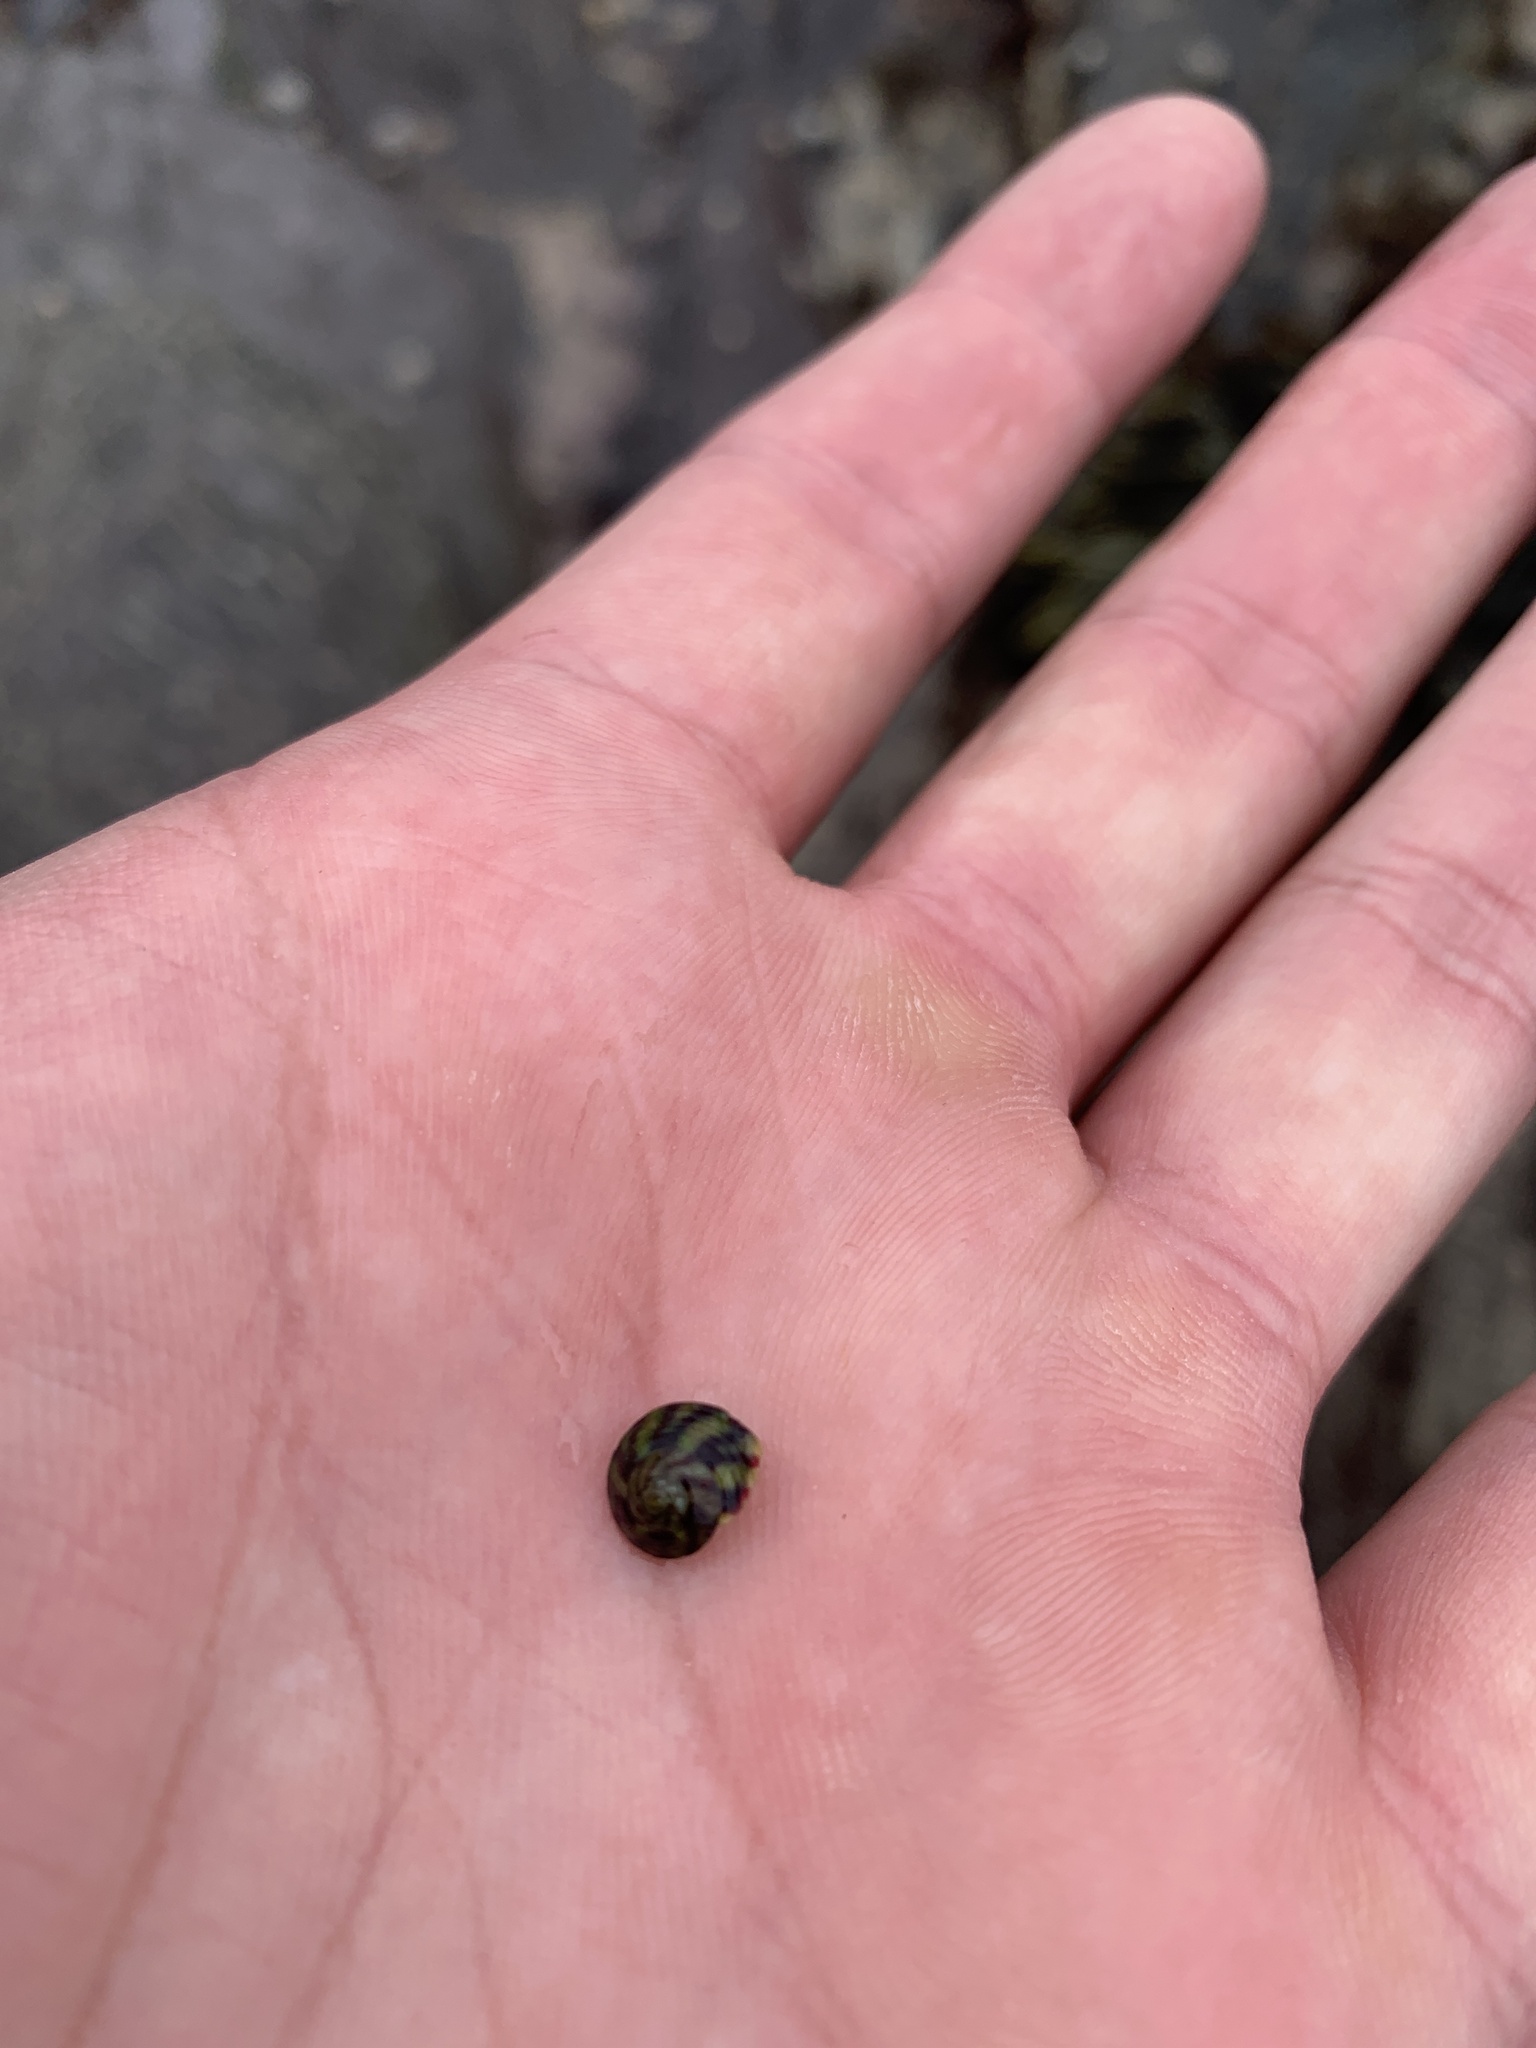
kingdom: Animalia
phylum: Mollusca
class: Gastropoda
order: Trochida
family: Trochidae
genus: Steromphala
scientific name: Steromphala umbilicalis
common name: Flat top shell
